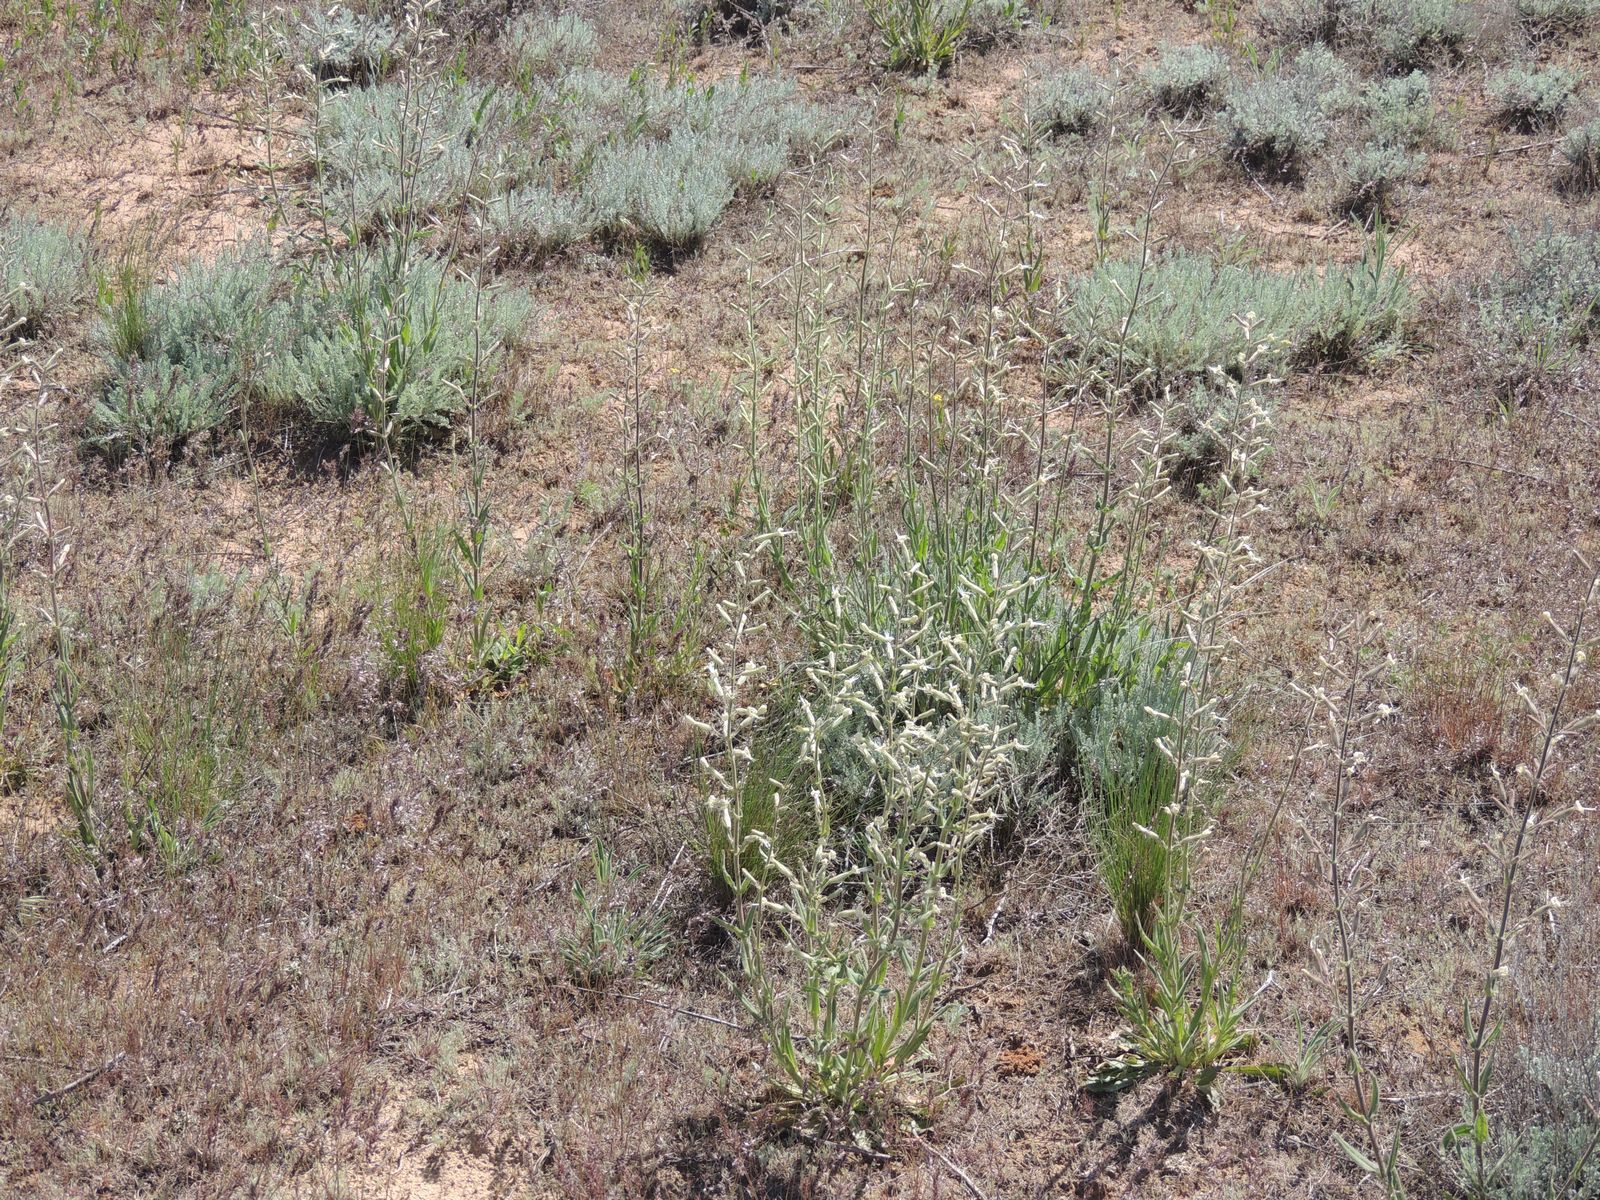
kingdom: Plantae
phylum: Tracheophyta
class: Magnoliopsida
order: Caryophyllales
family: Caryophyllaceae
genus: Silene
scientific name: Silene viscosa
